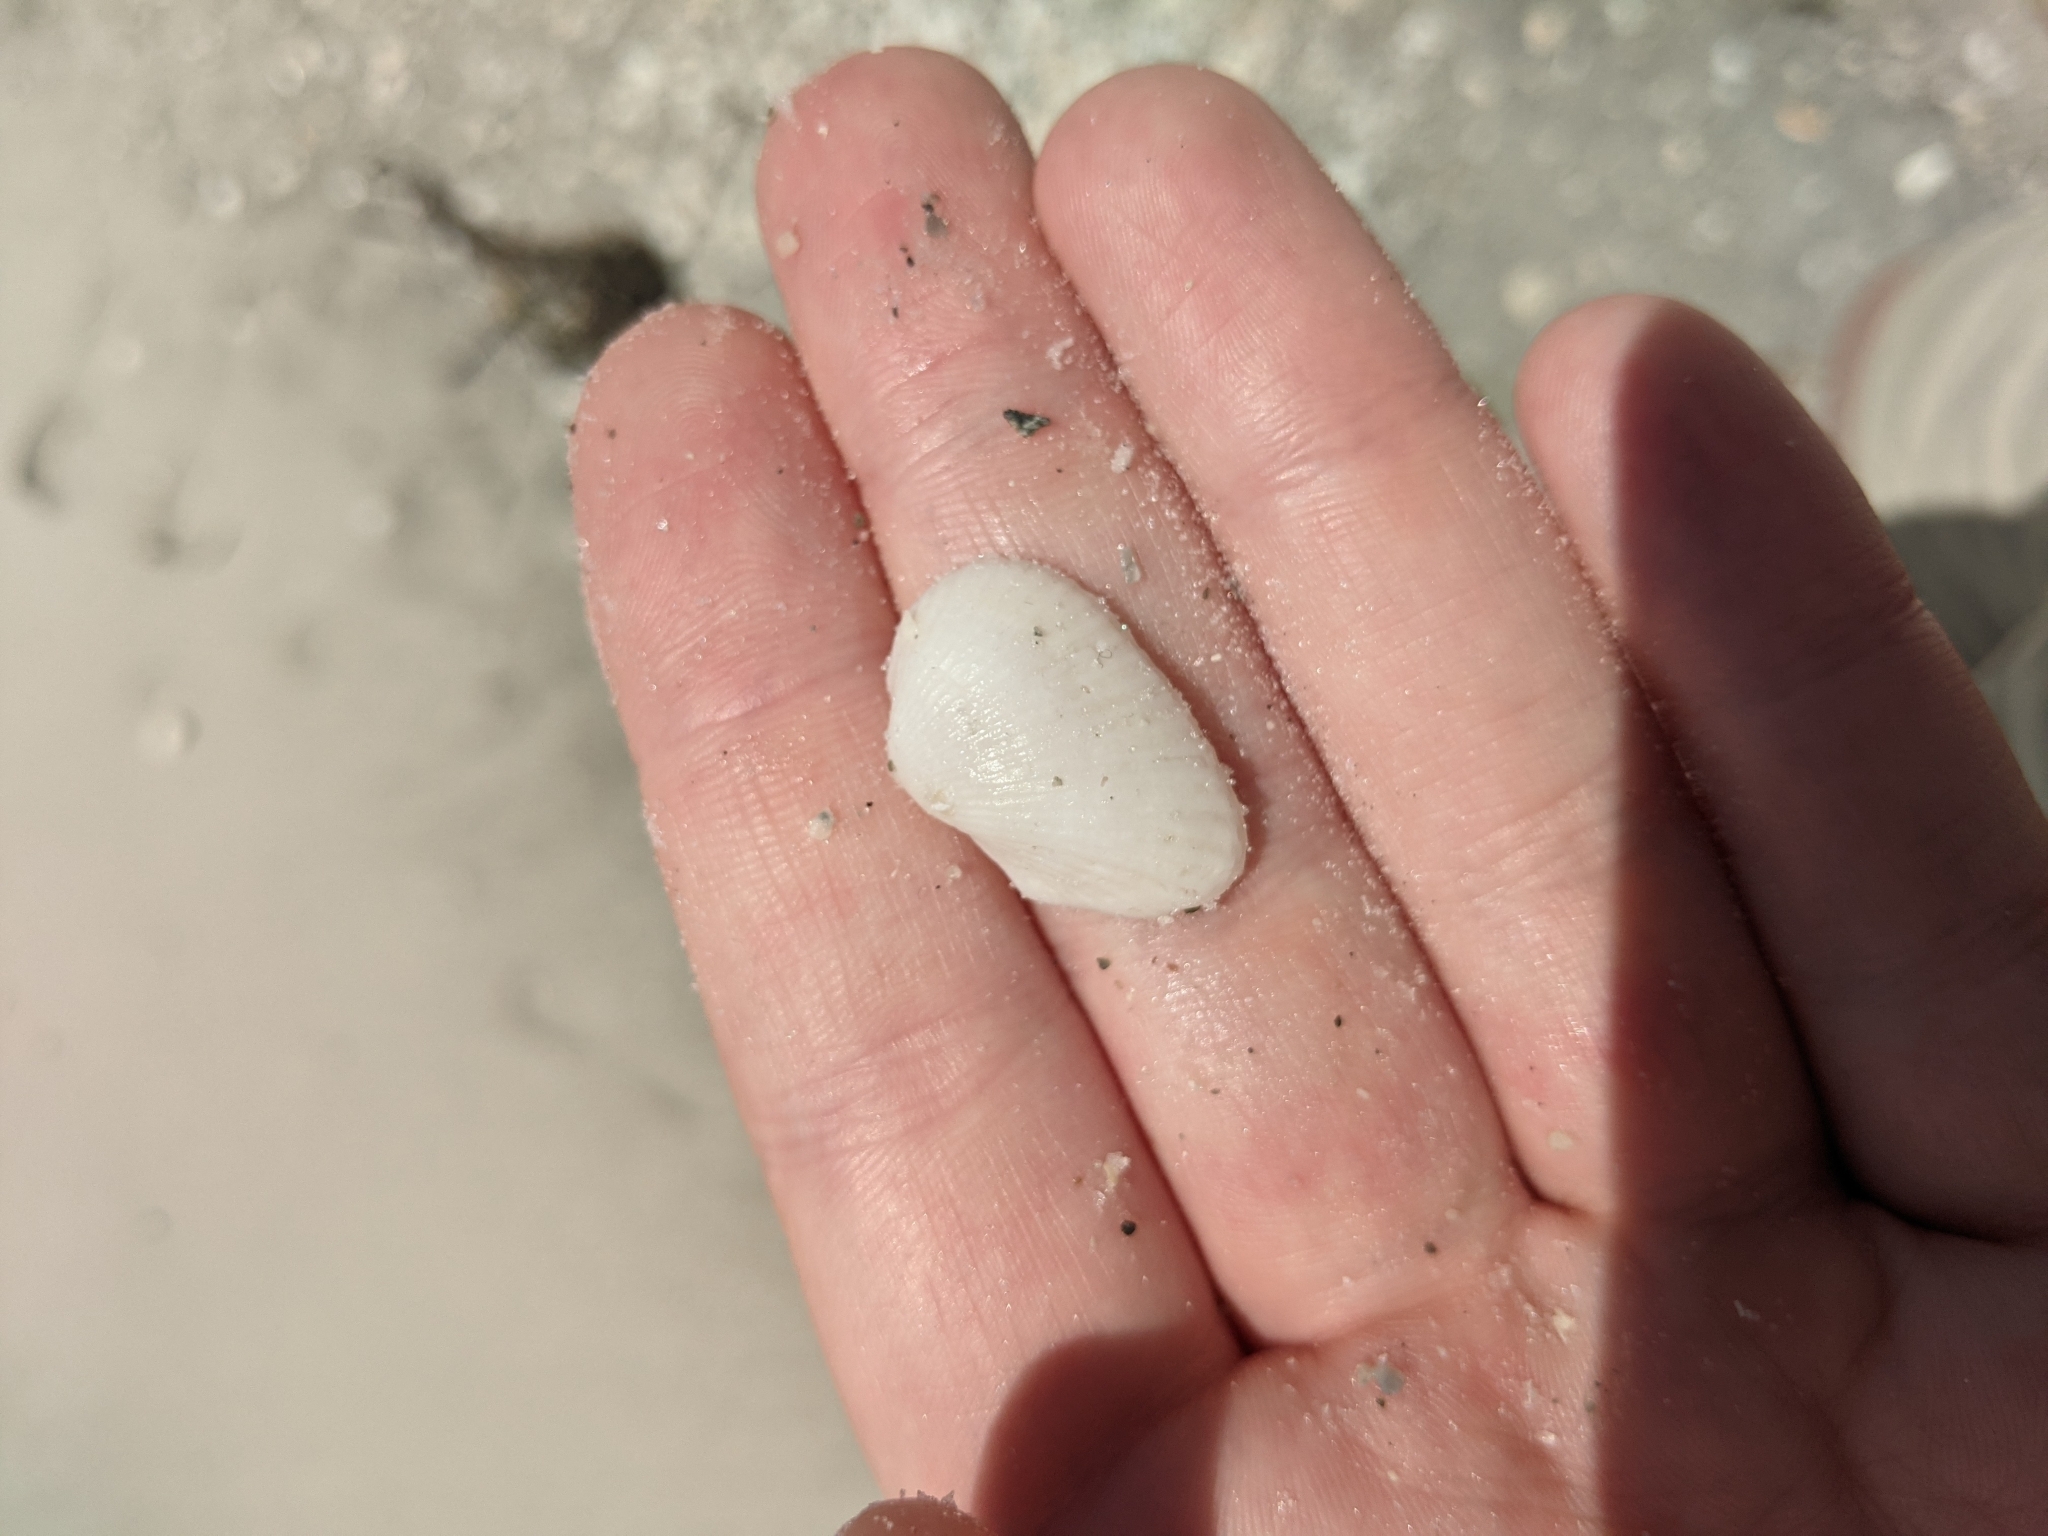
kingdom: Animalia
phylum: Mollusca
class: Bivalvia
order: Arcida
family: Arcidae
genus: Anadara
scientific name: Anadara transversa
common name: Transverse ark
